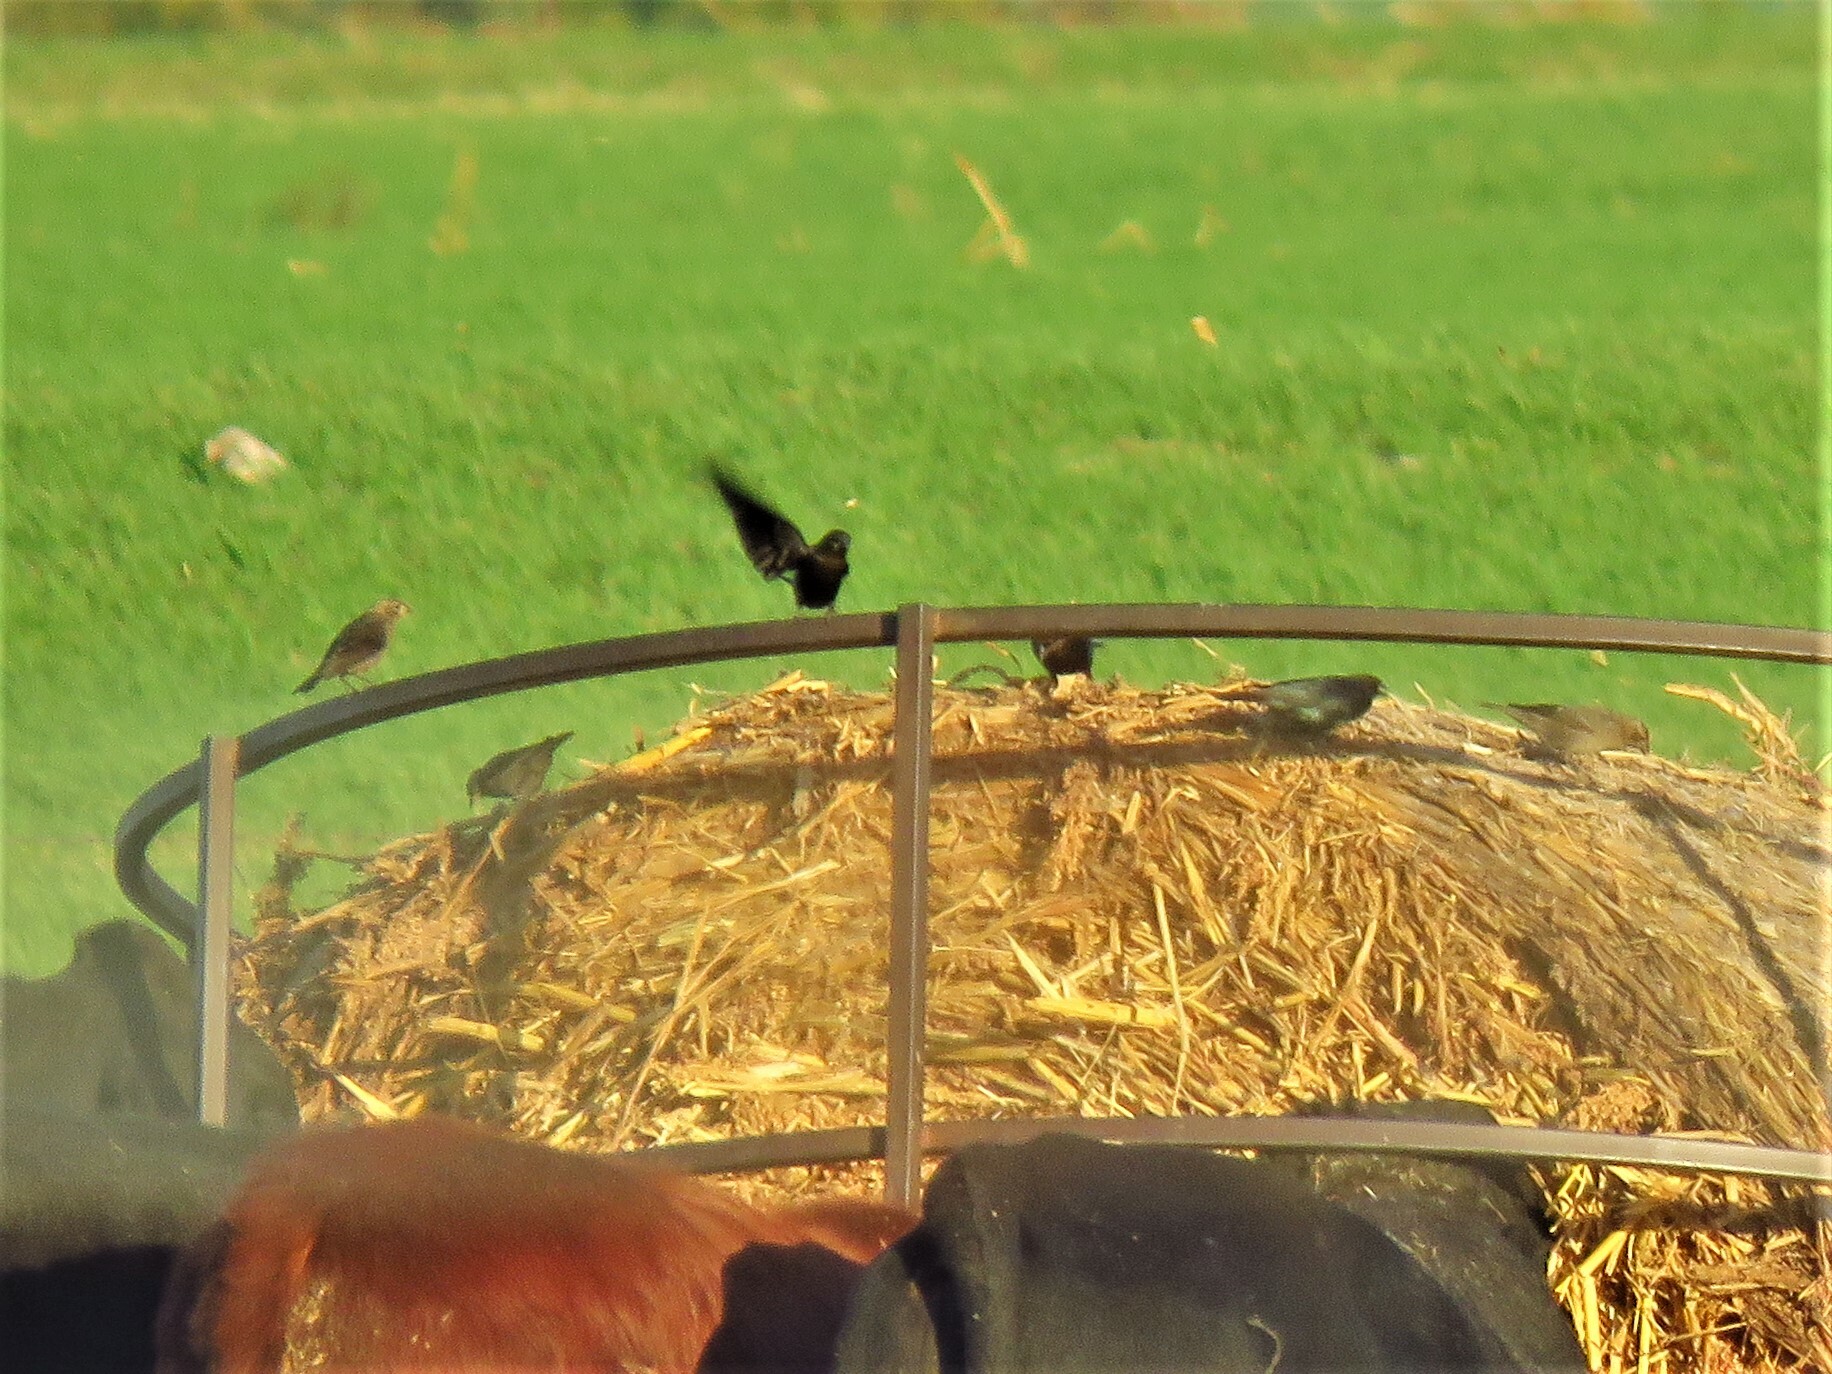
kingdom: Animalia
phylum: Chordata
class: Aves
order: Passeriformes
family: Icteridae
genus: Molothrus
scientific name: Molothrus ater
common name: Brown-headed cowbird
